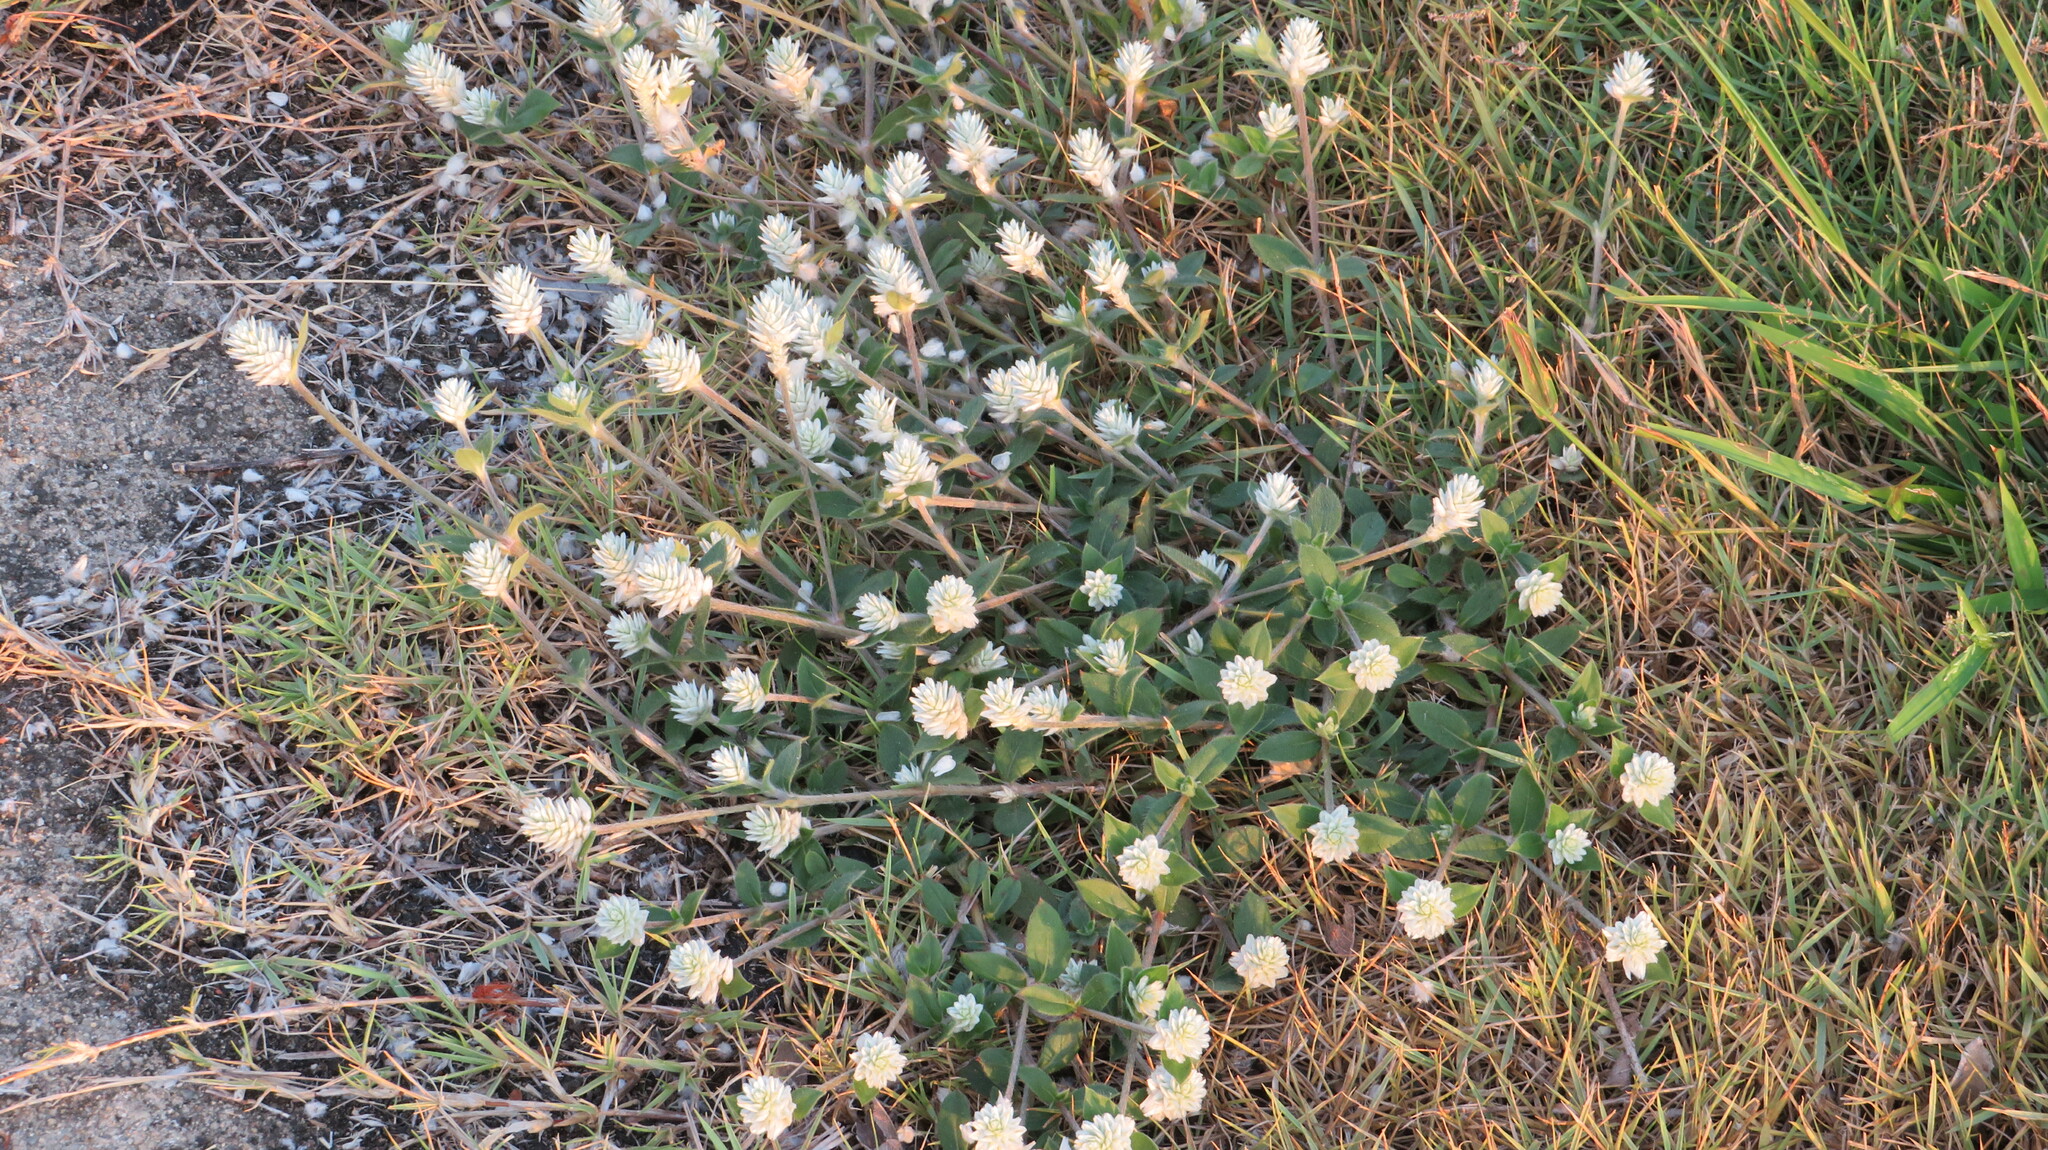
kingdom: Plantae
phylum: Tracheophyta
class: Magnoliopsida
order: Caryophyllales
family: Amaranthaceae
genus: Gomphrena
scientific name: Gomphrena serrata
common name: Arrasa con todo
